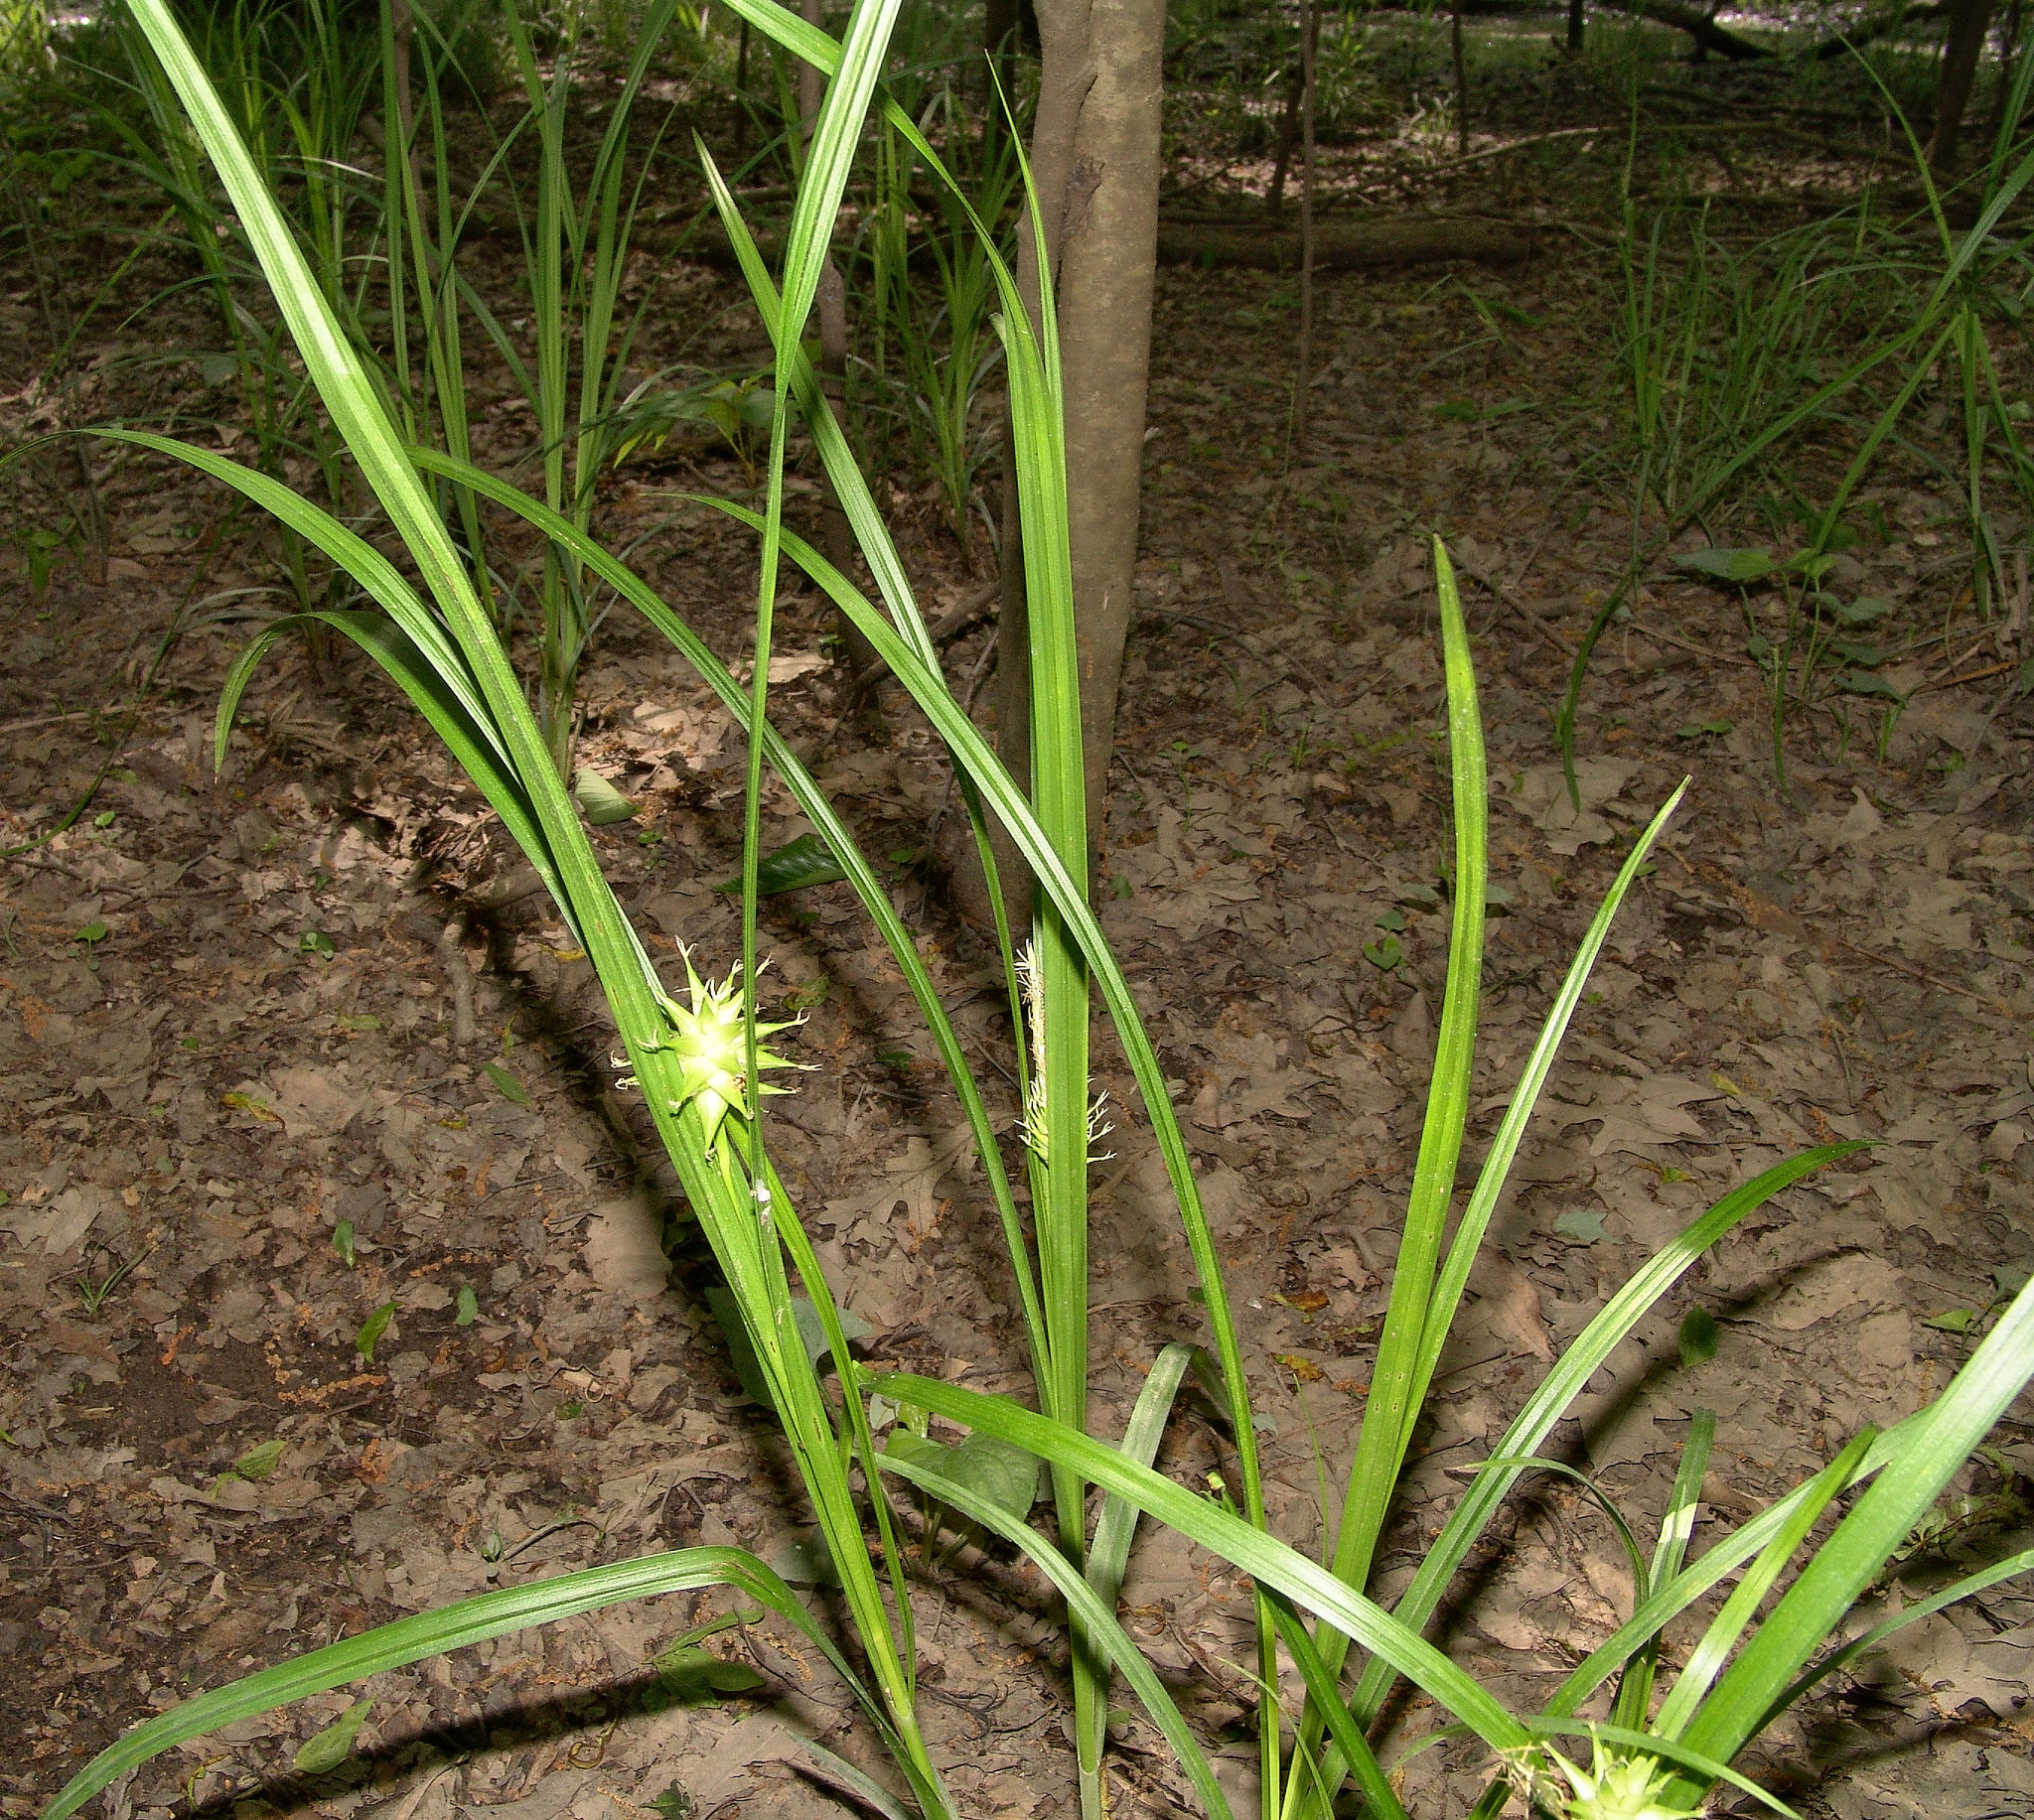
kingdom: Plantae
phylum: Tracheophyta
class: Liliopsida
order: Poales
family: Cyperaceae
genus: Carex
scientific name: Carex grayi
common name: Asa gray's sedge
